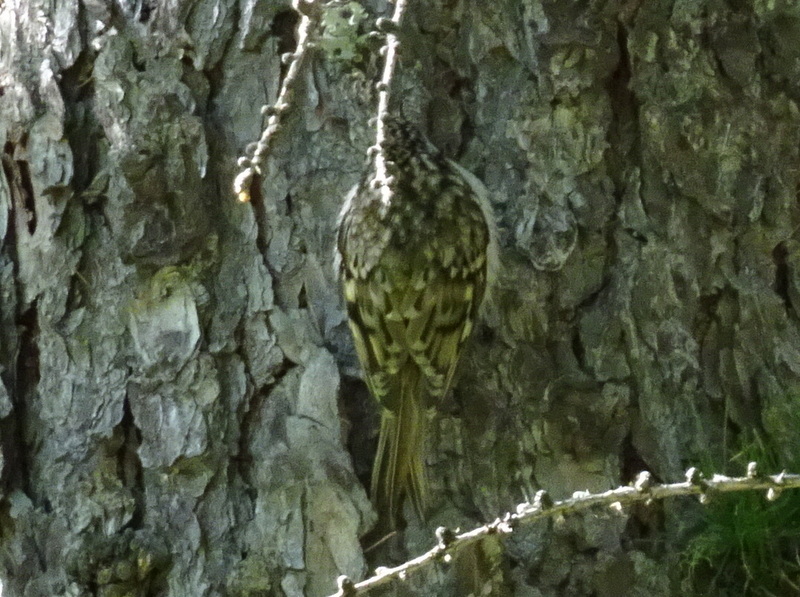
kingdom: Animalia
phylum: Chordata
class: Aves
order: Passeriformes
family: Certhiidae
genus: Certhia
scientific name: Certhia familiaris
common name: Eurasian treecreeper
